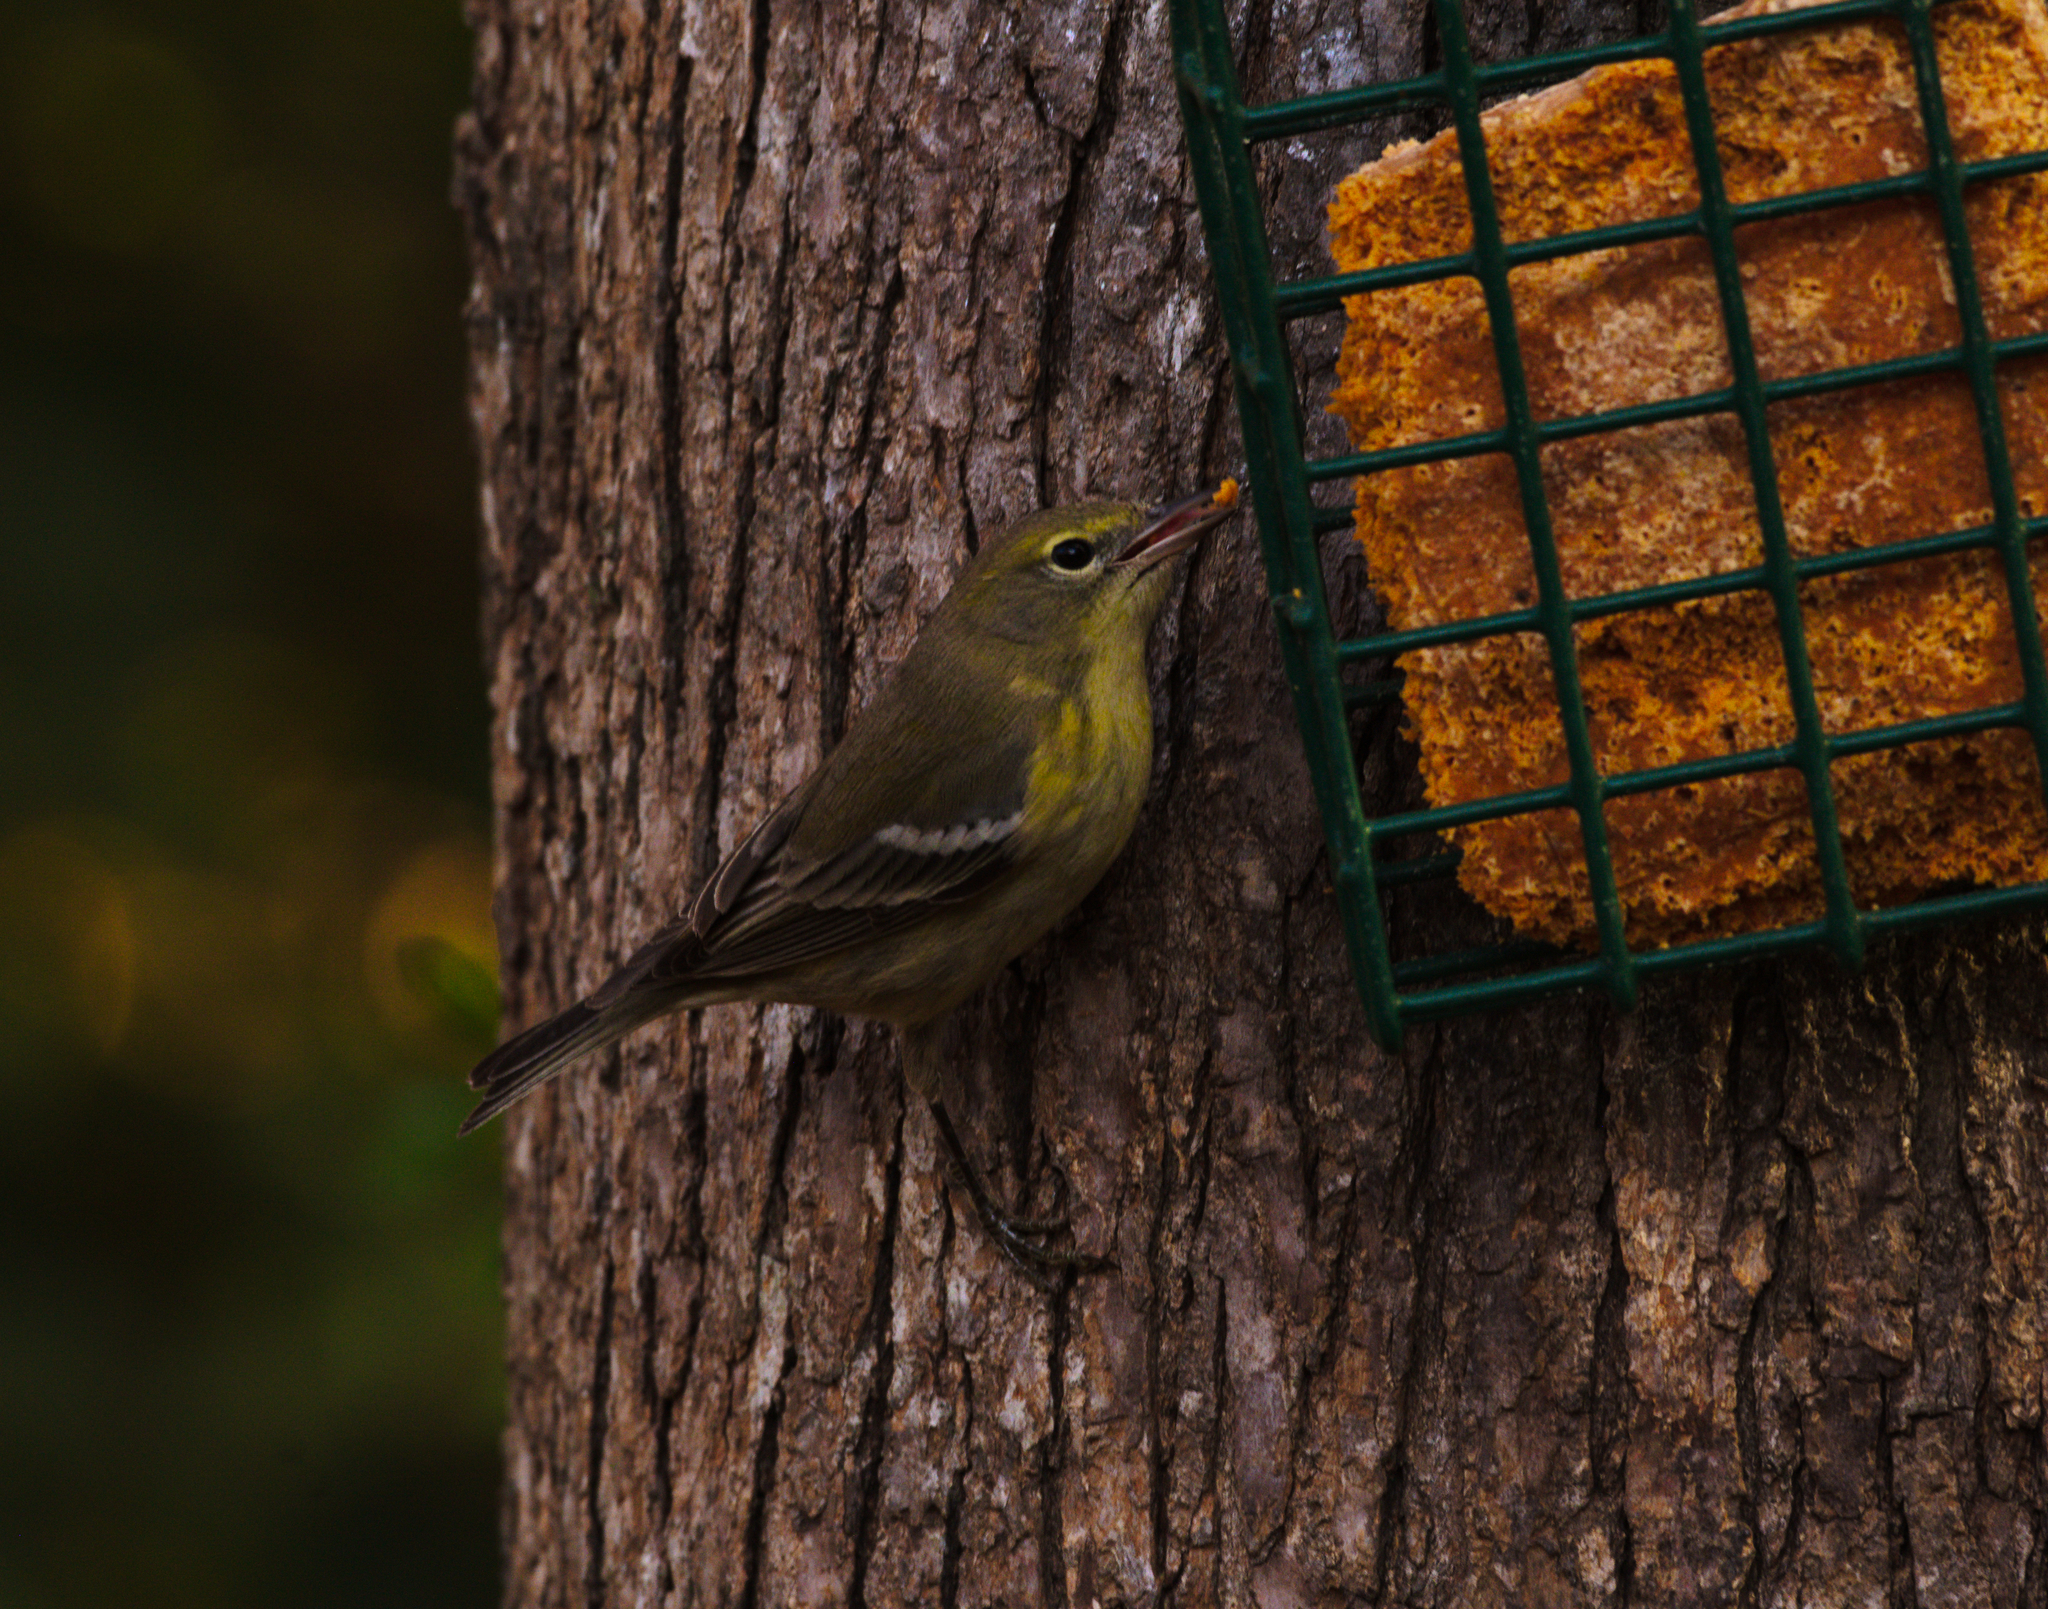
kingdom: Animalia
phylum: Chordata
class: Aves
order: Passeriformes
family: Parulidae
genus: Setophaga
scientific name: Setophaga pinus
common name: Pine warbler
